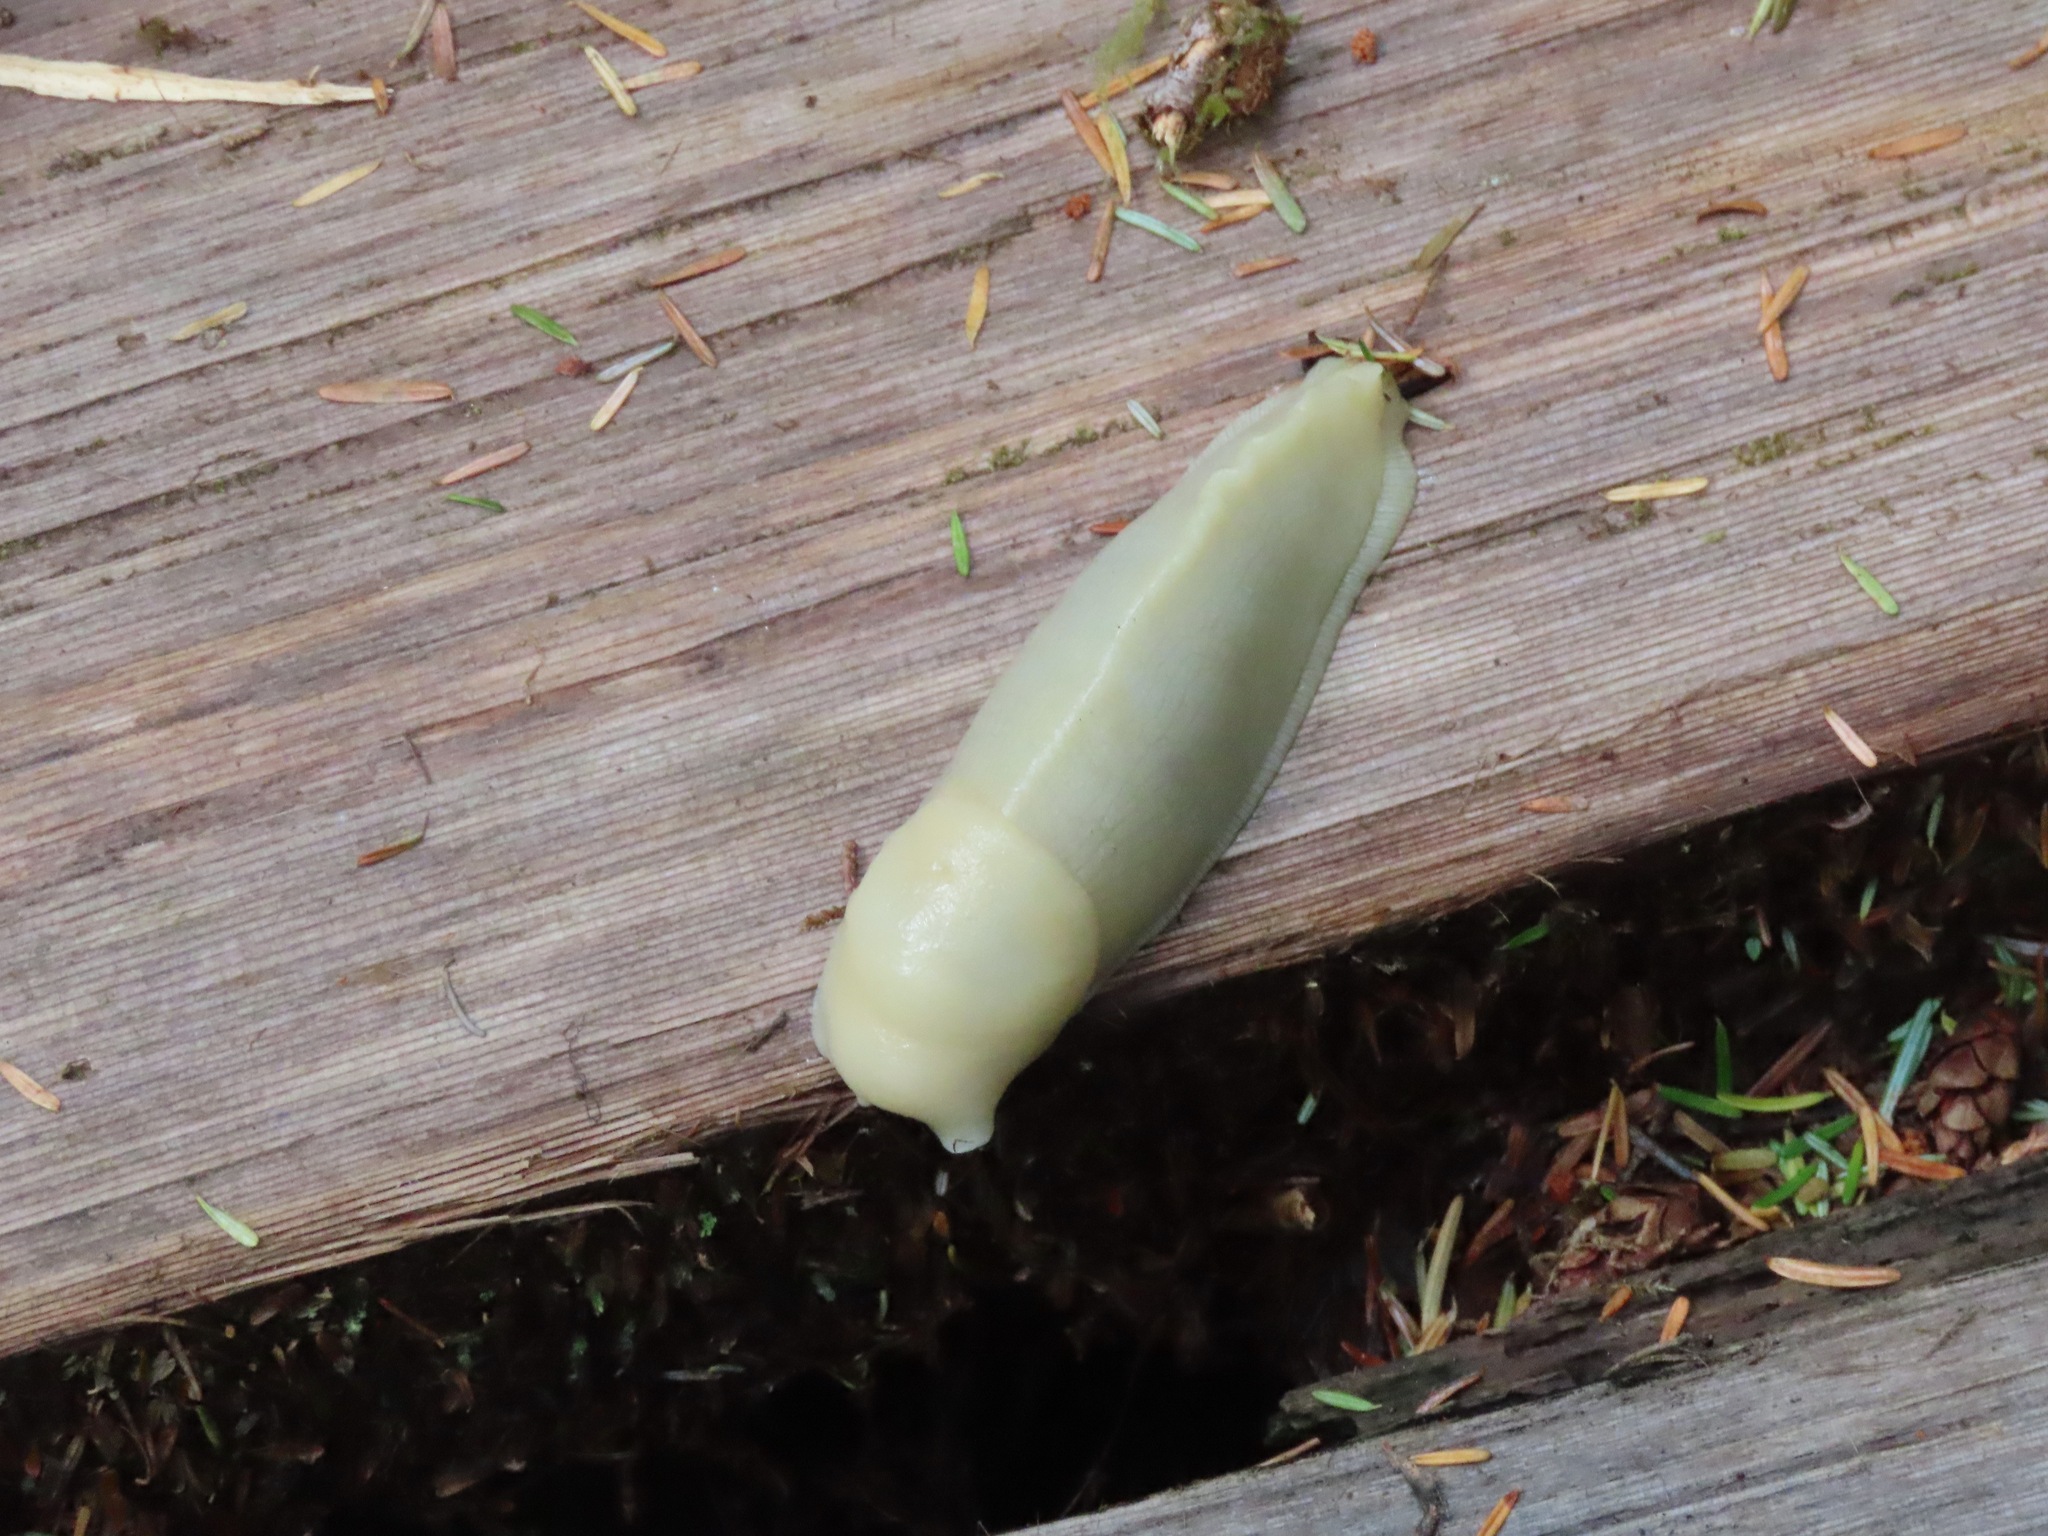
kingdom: Animalia
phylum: Mollusca
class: Gastropoda
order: Stylommatophora
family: Ariolimacidae
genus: Ariolimax
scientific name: Ariolimax columbianus
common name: Pacific banana slug
